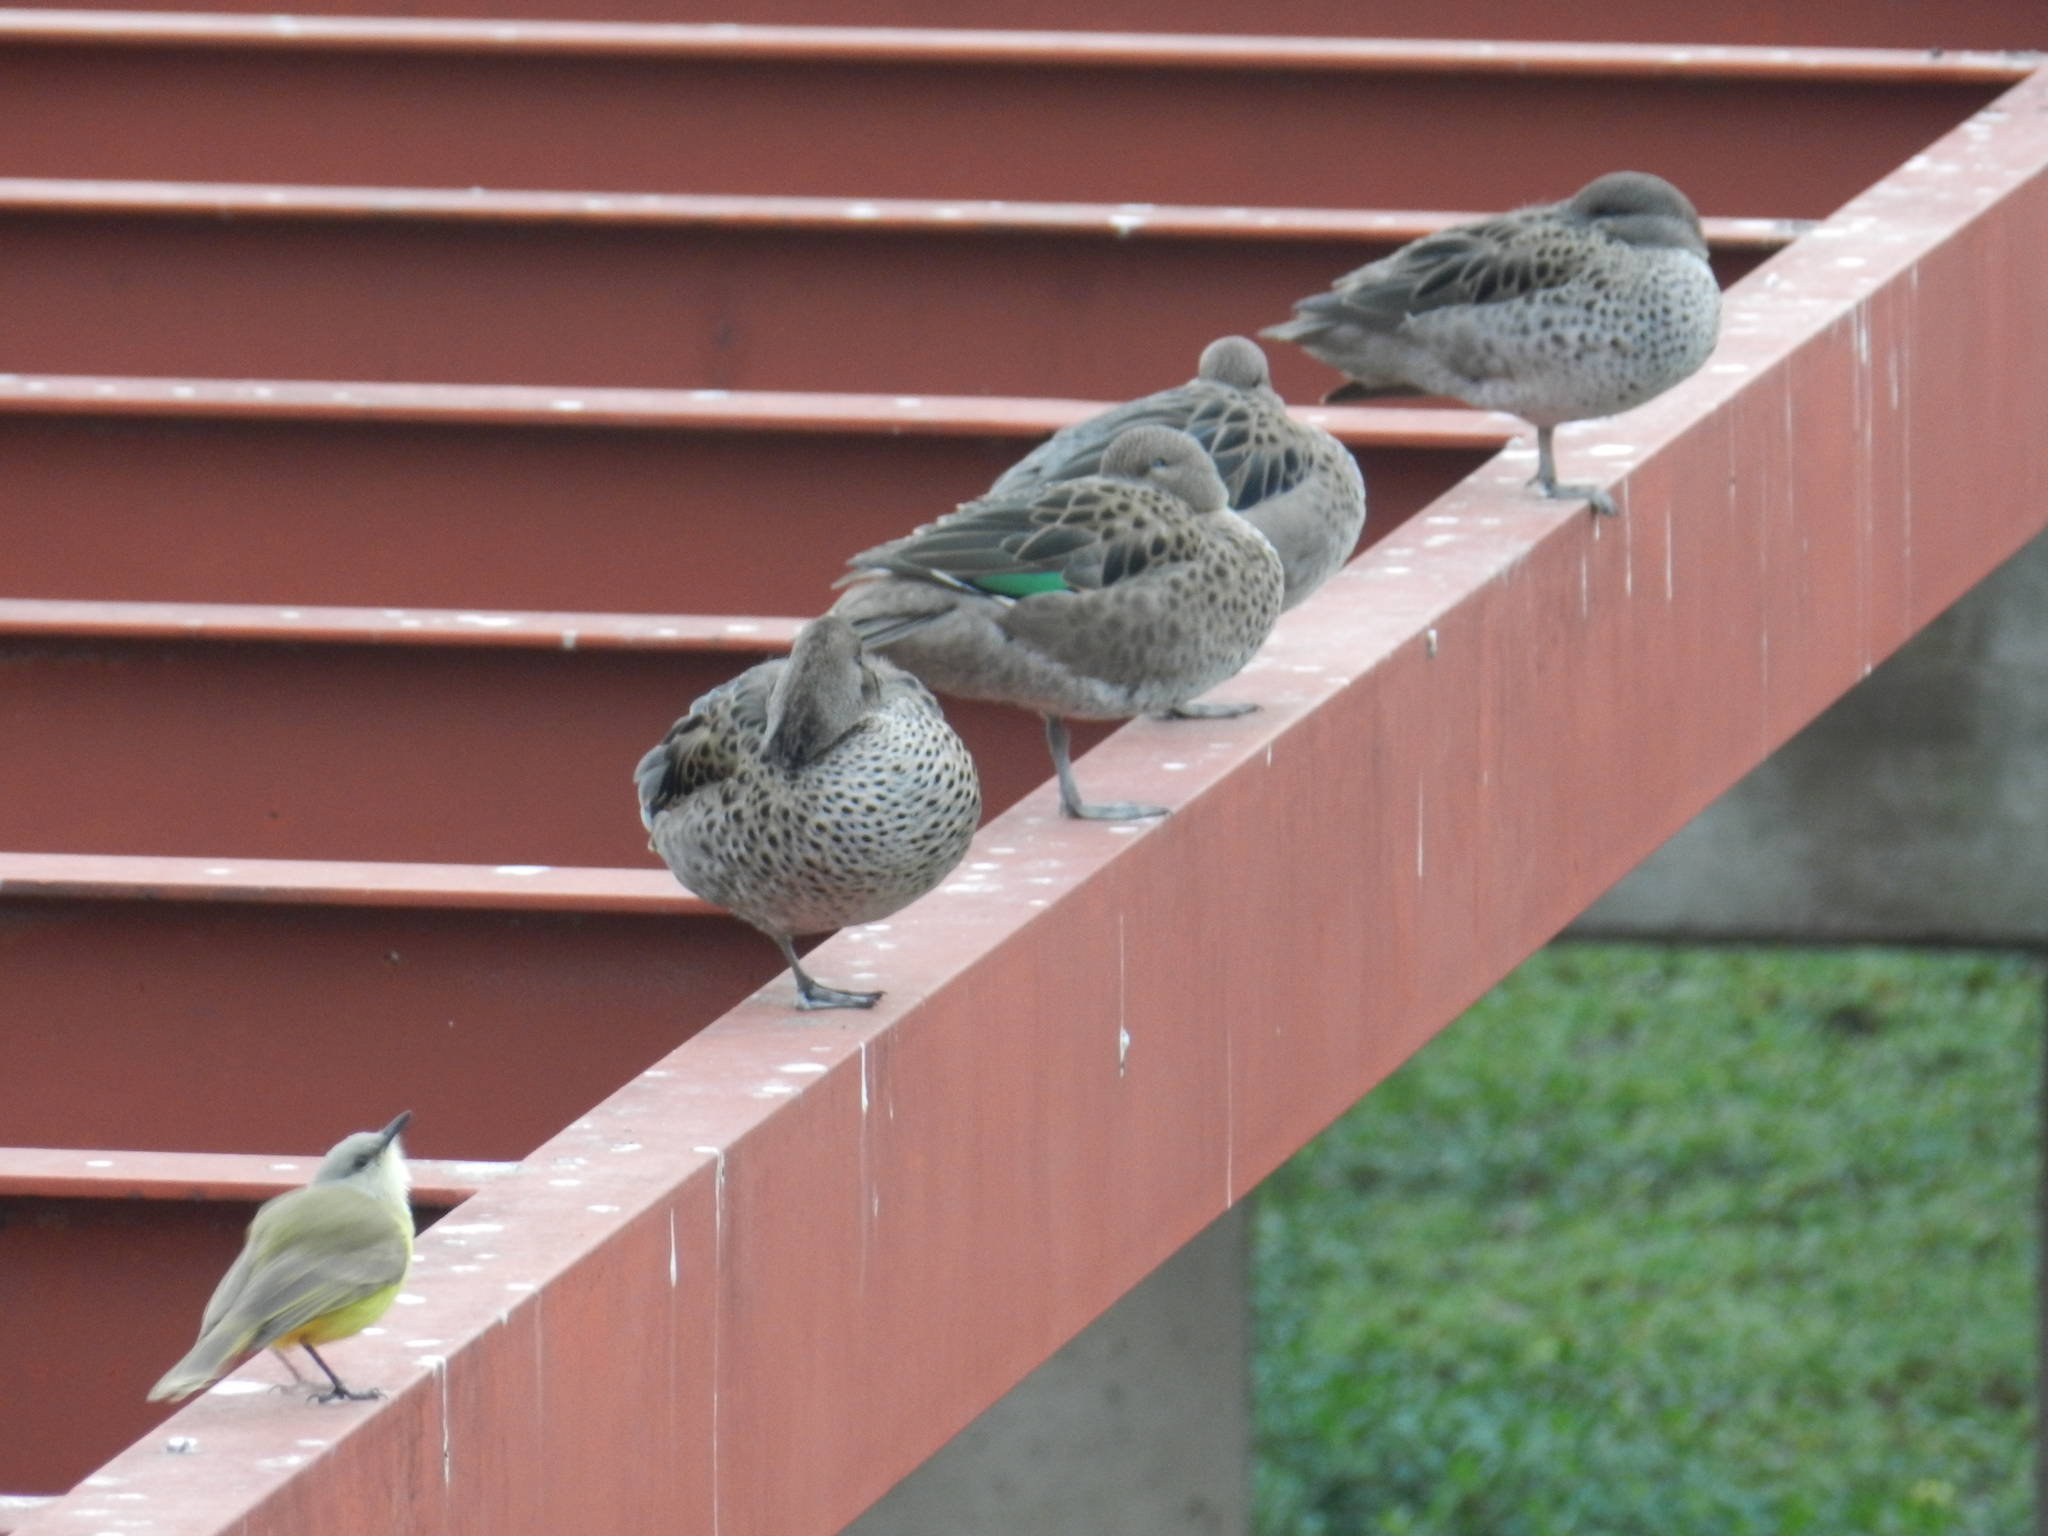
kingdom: Animalia
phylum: Chordata
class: Aves
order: Passeriformes
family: Tyrannidae
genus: Machetornis
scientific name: Machetornis rixosa
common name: Cattle tyrant
